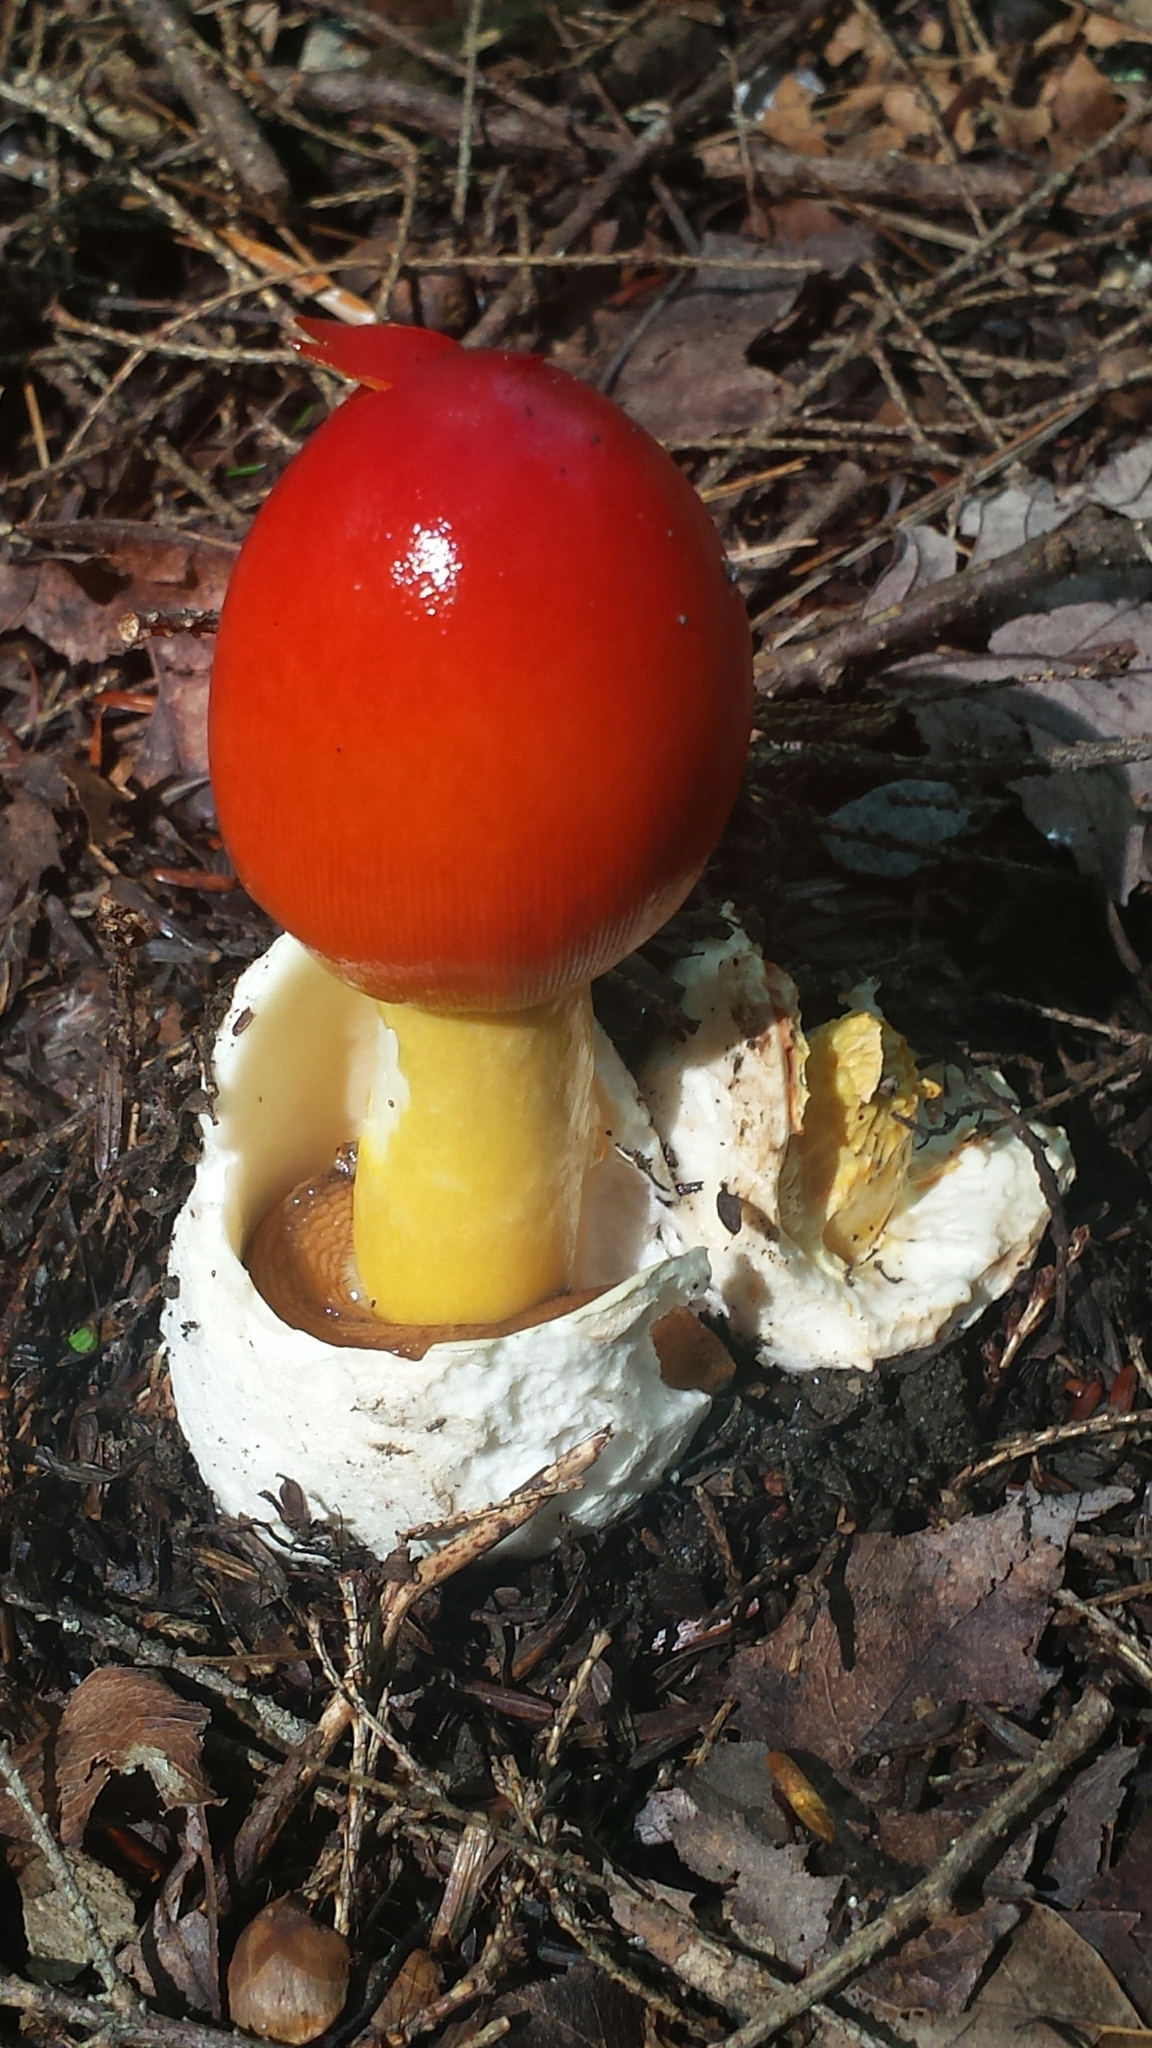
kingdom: Fungi
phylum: Basidiomycota
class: Agaricomycetes
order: Agaricales
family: Amanitaceae
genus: Amanita
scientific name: Amanita jacksonii
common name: Jackson's slender caesar
